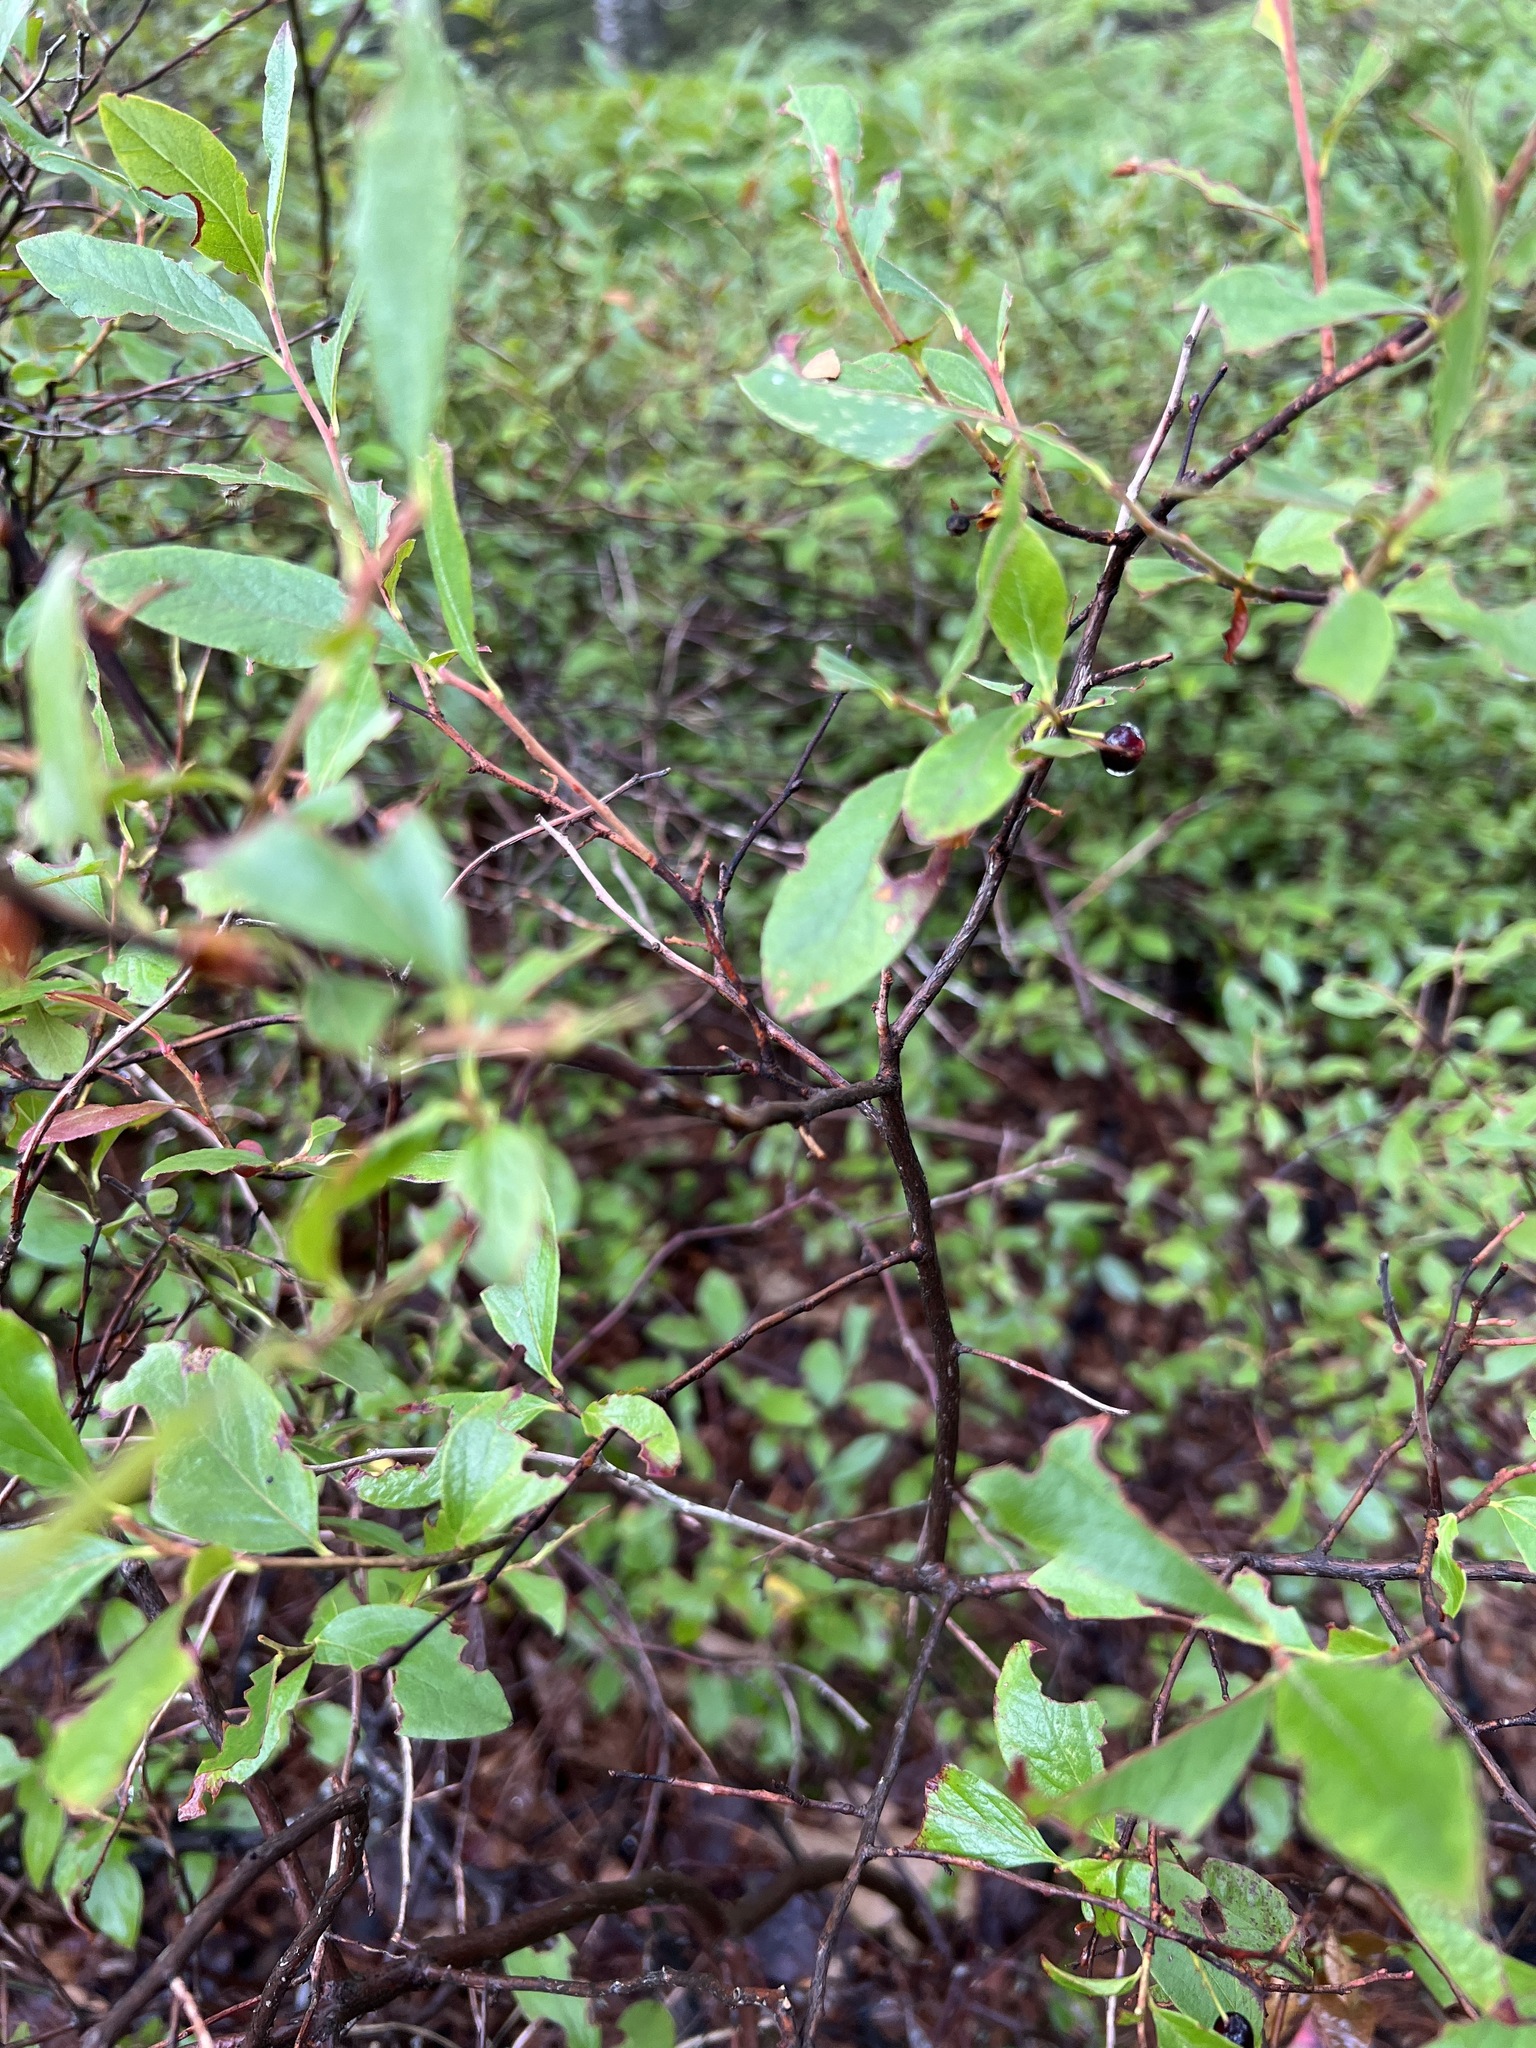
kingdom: Plantae
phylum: Tracheophyta
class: Magnoliopsida
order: Ericales
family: Ericaceae
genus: Gaylussacia
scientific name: Gaylussacia baccata
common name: Black huckleberry
